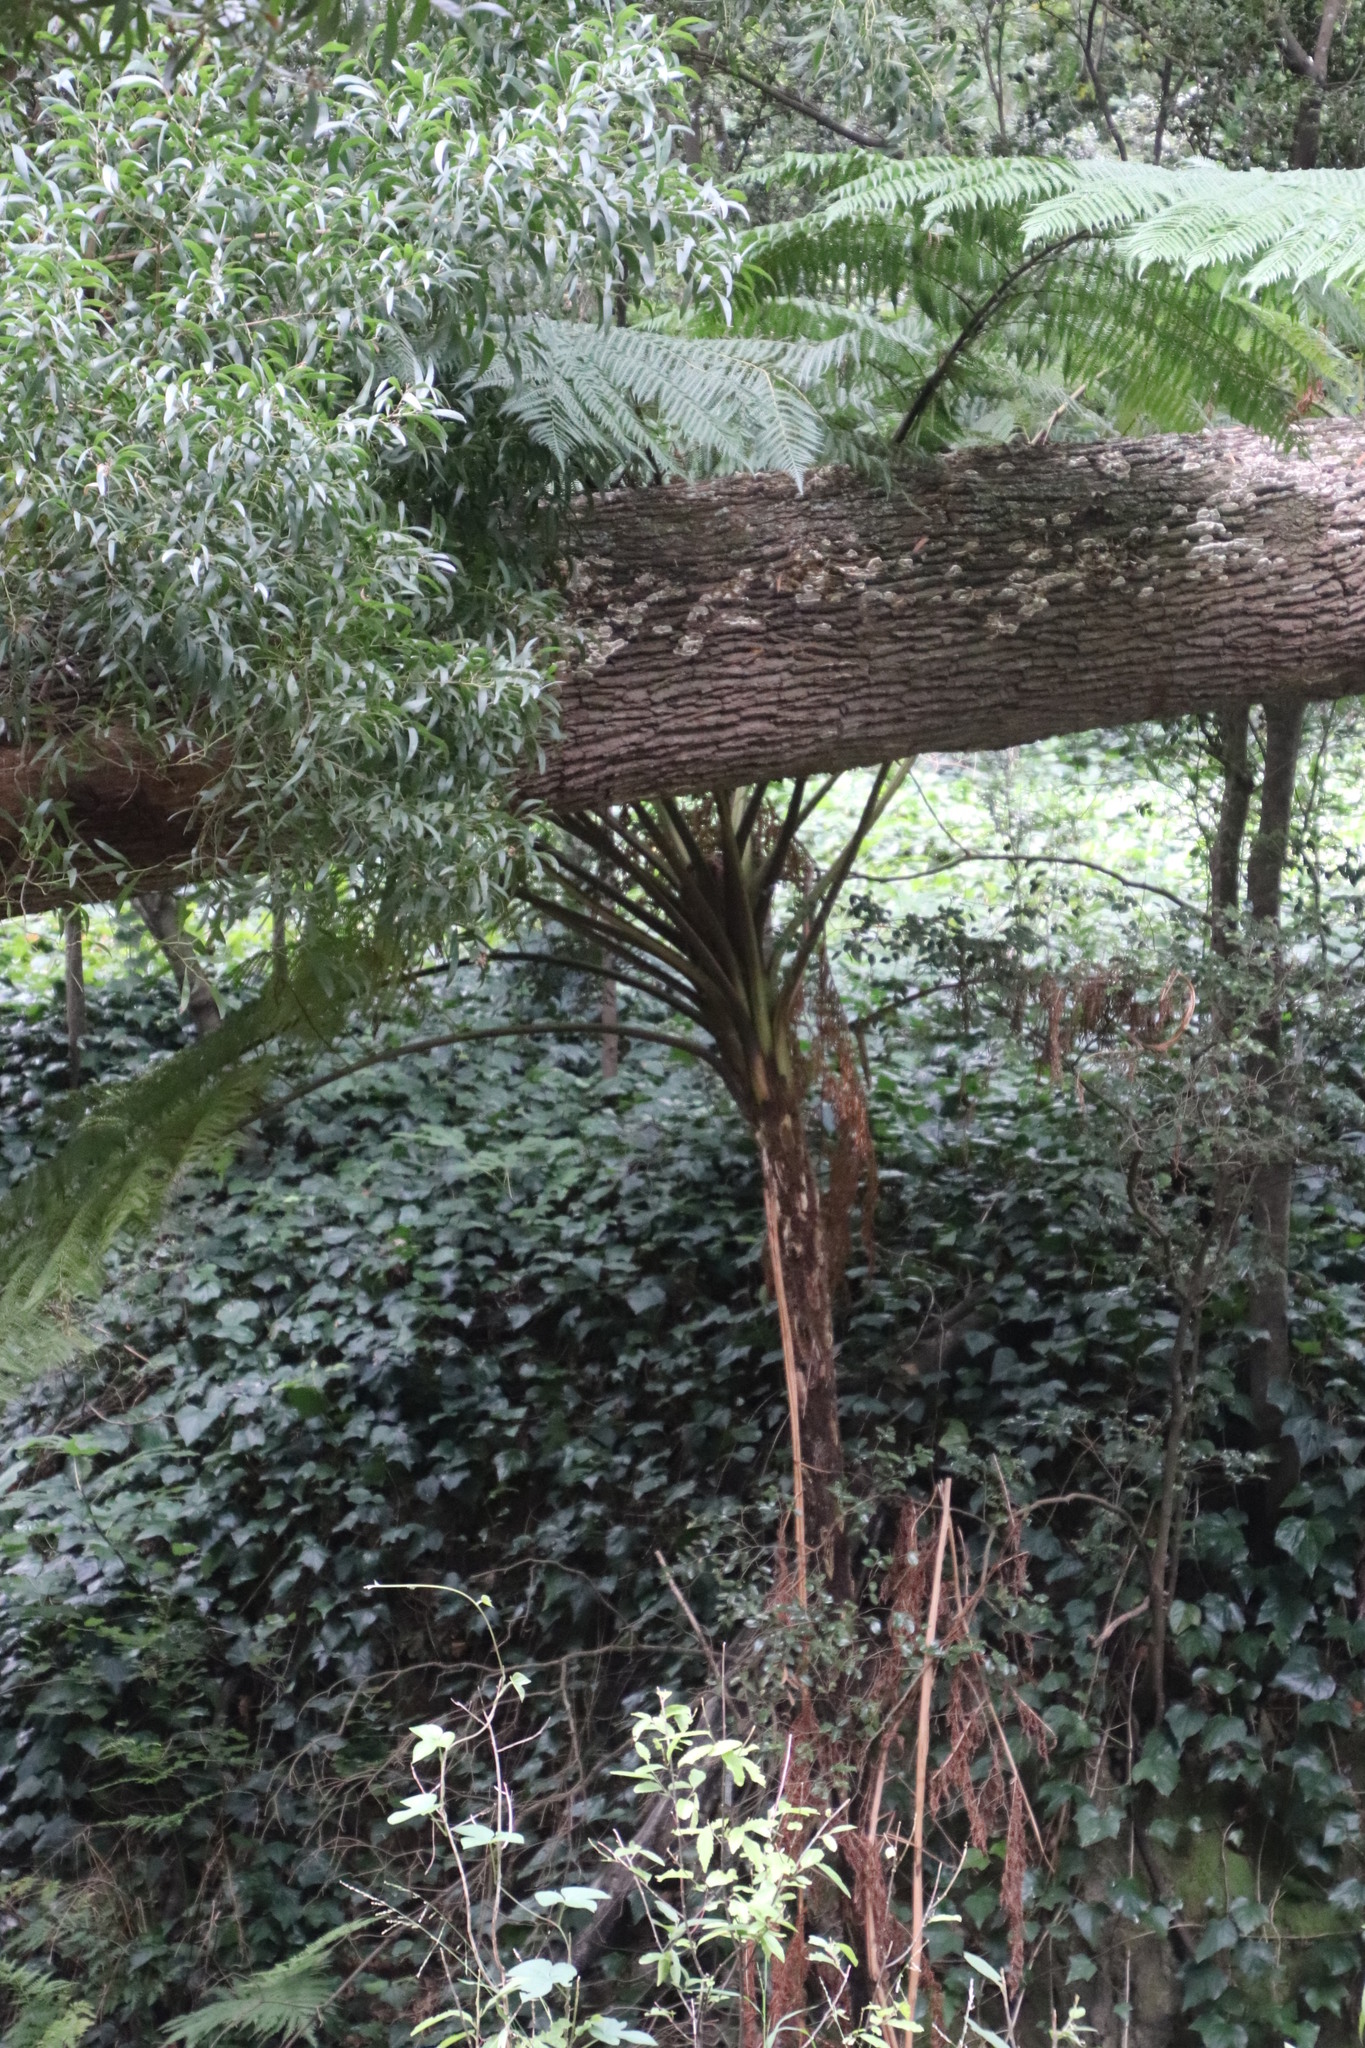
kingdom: Plantae
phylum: Tracheophyta
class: Polypodiopsida
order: Cyatheales
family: Cyatheaceae
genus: Sphaeropteris
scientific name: Sphaeropteris cooperi
